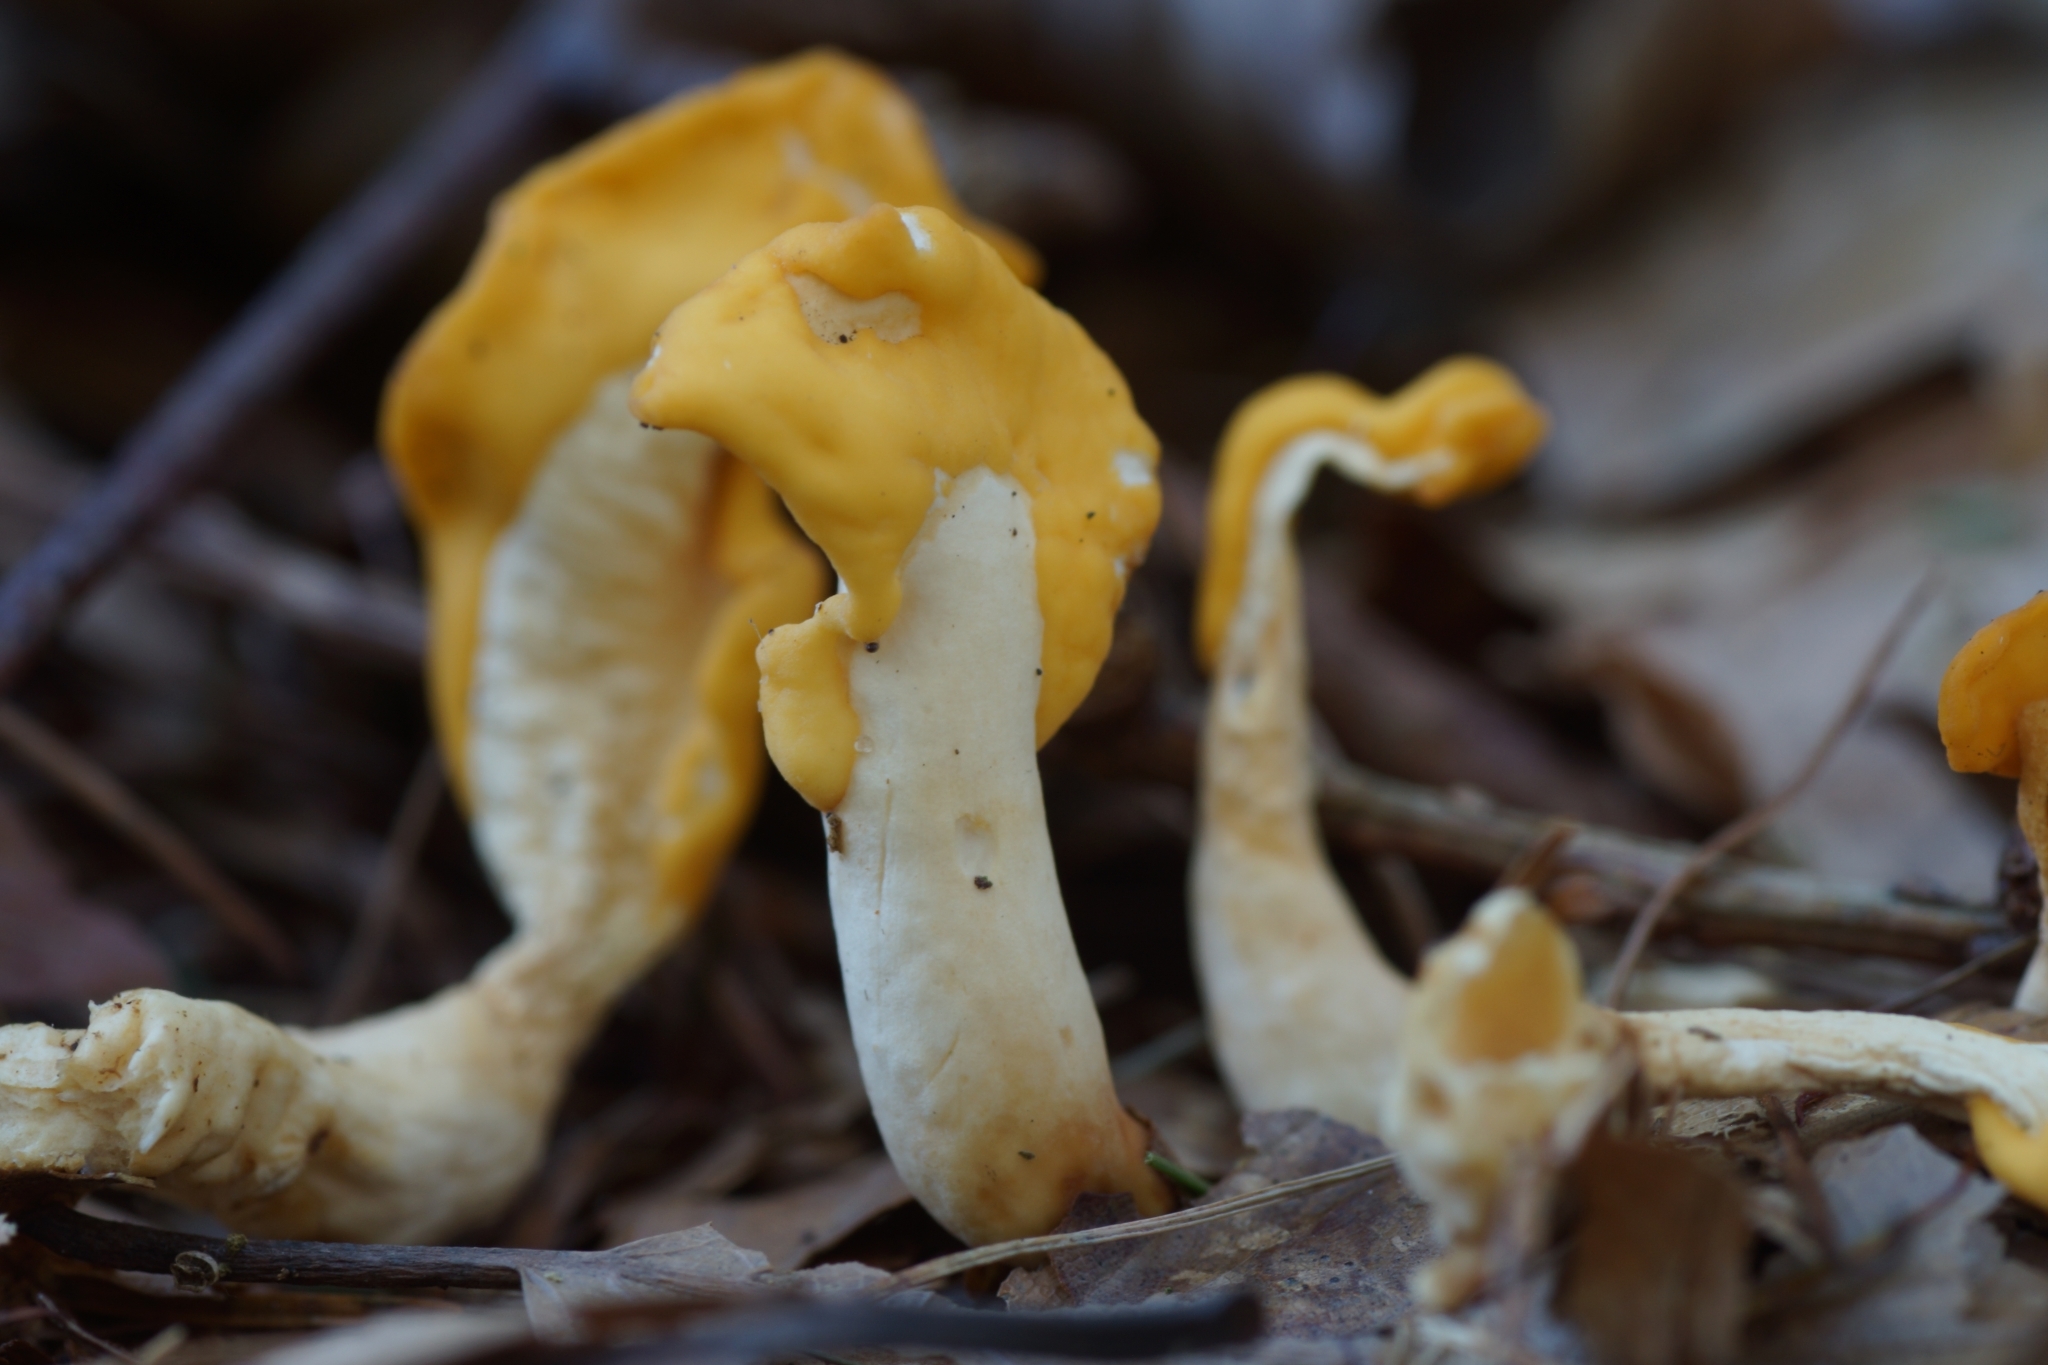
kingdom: Fungi
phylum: Ascomycota
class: Leotiomycetes
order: Rhytismatales
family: Cudoniaceae
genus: Spathularia
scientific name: Spathularia flavida
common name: Yellow fan
